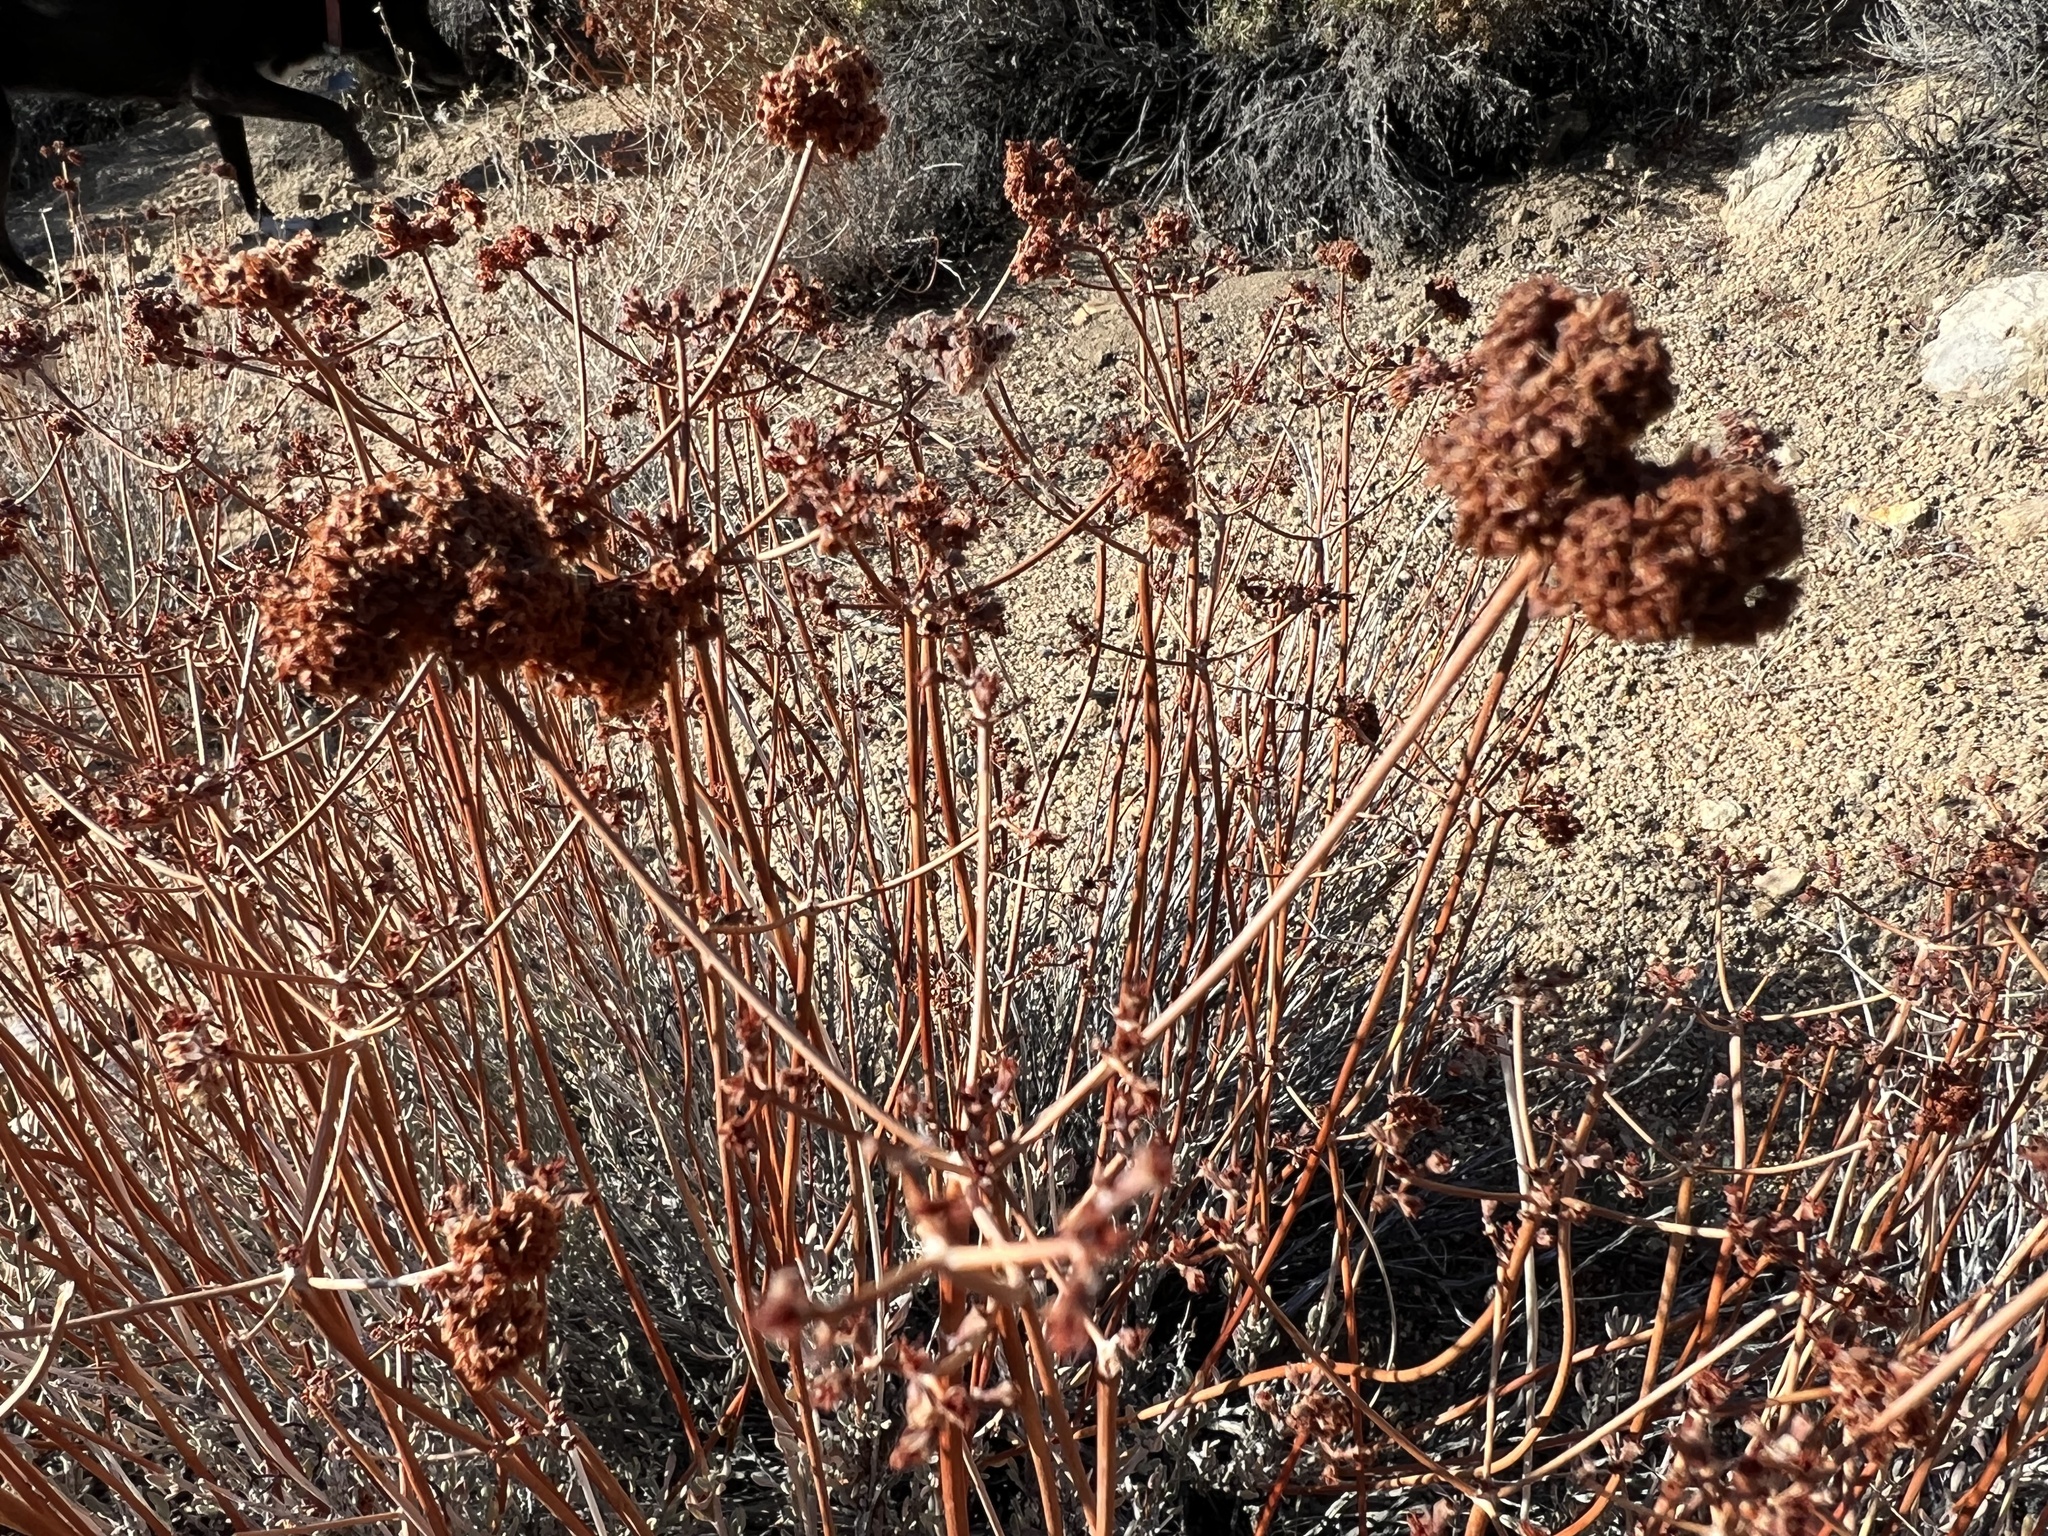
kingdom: Plantae
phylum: Tracheophyta
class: Magnoliopsida
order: Caryophyllales
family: Polygonaceae
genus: Eriogonum
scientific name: Eriogonum fasciculatum
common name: California wild buckwheat
